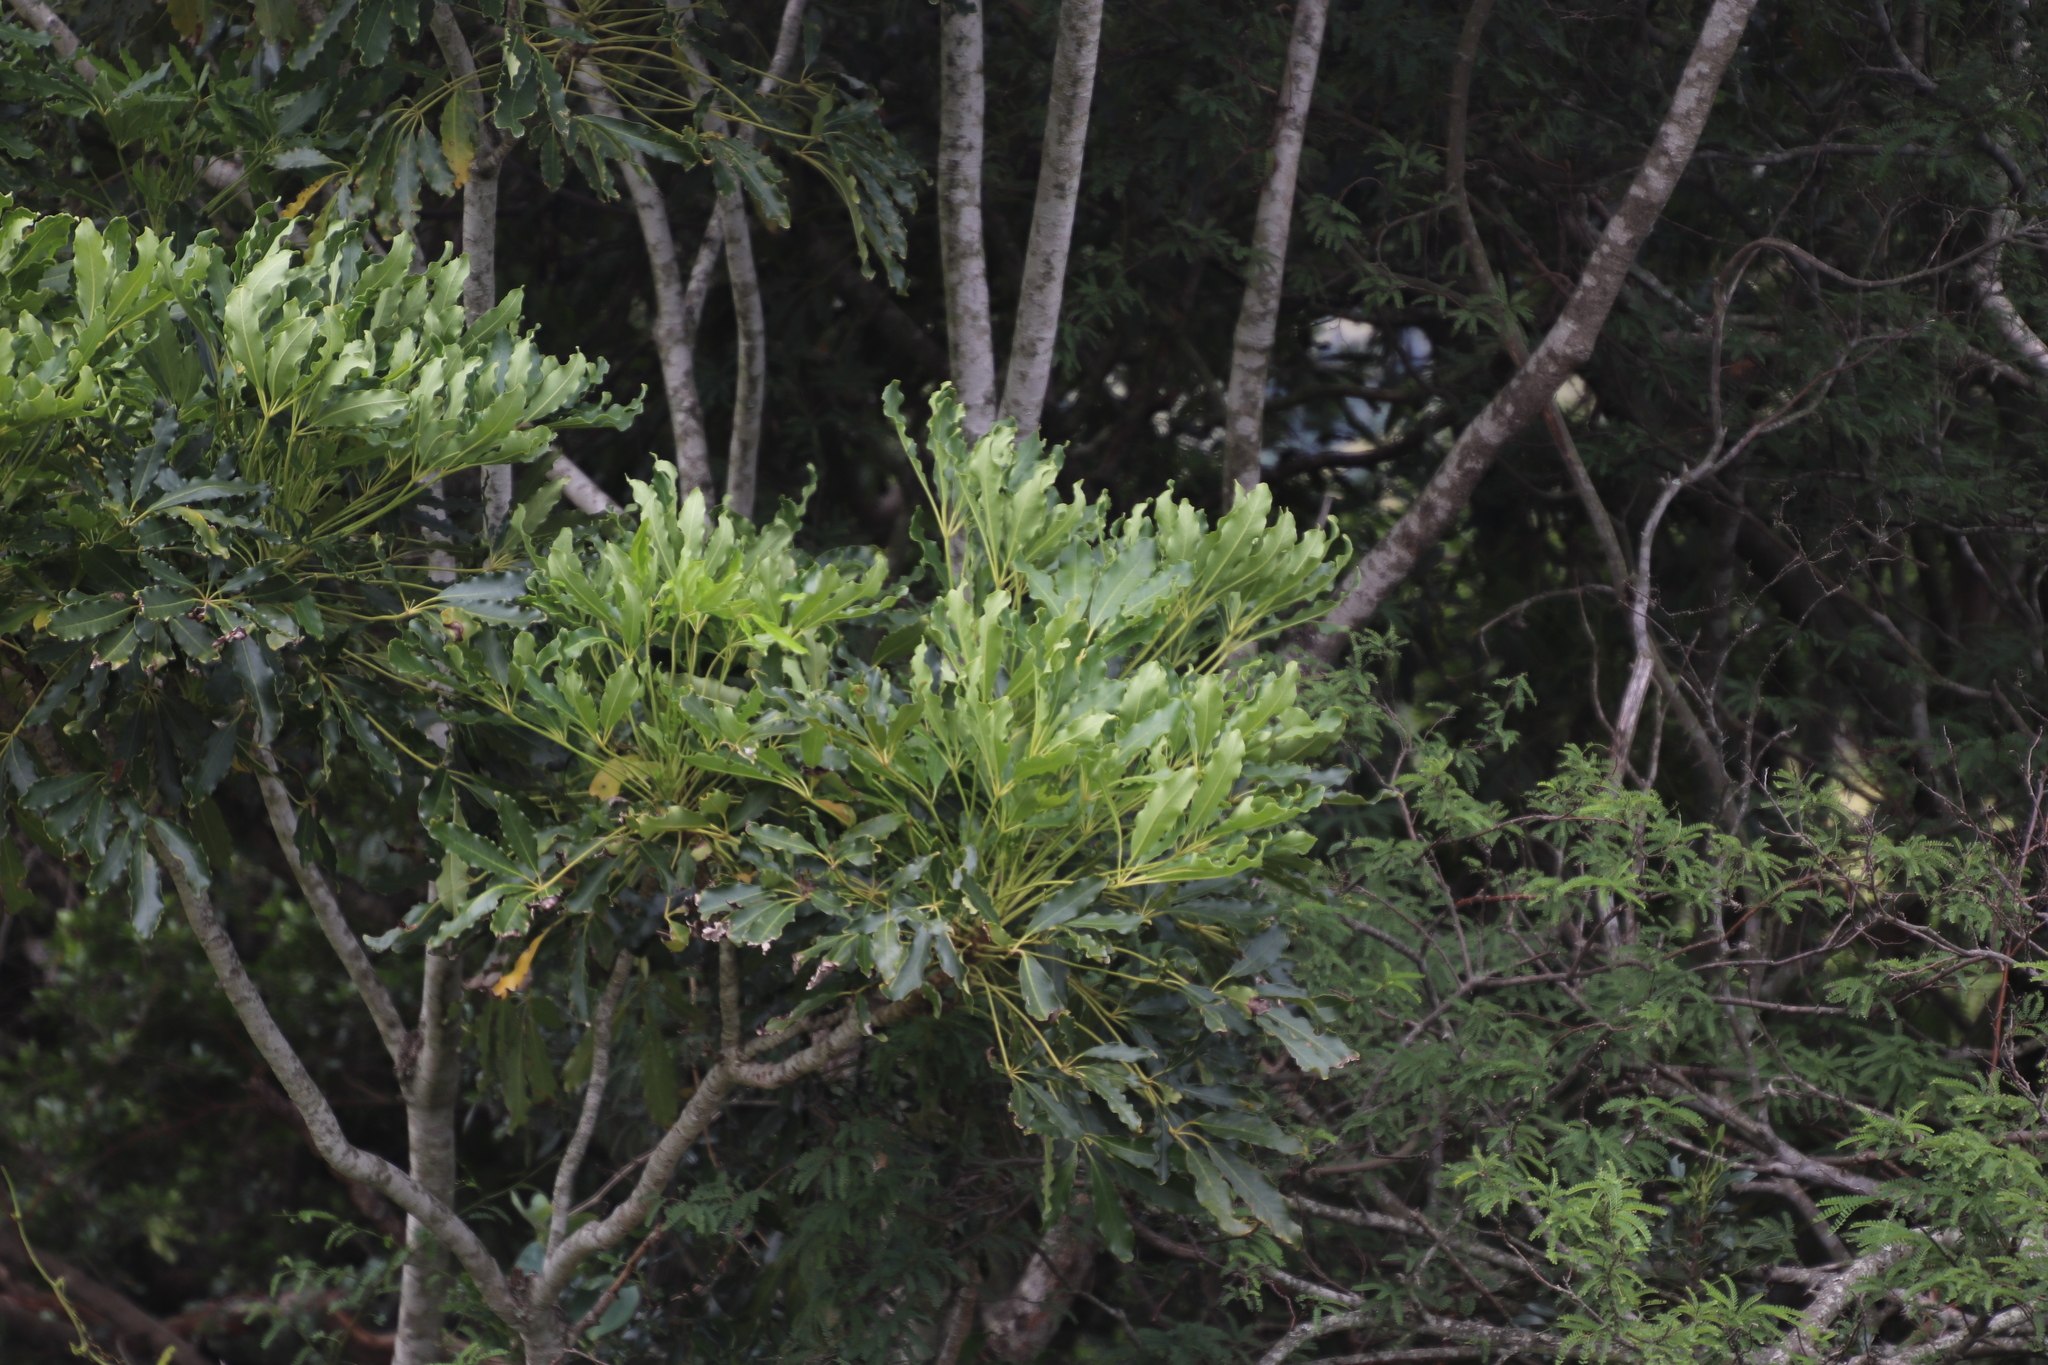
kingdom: Plantae
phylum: Tracheophyta
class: Magnoliopsida
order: Apiales
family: Araliaceae
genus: Neocussonia
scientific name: Neocussonia umbellifera
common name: False cabbage tree
